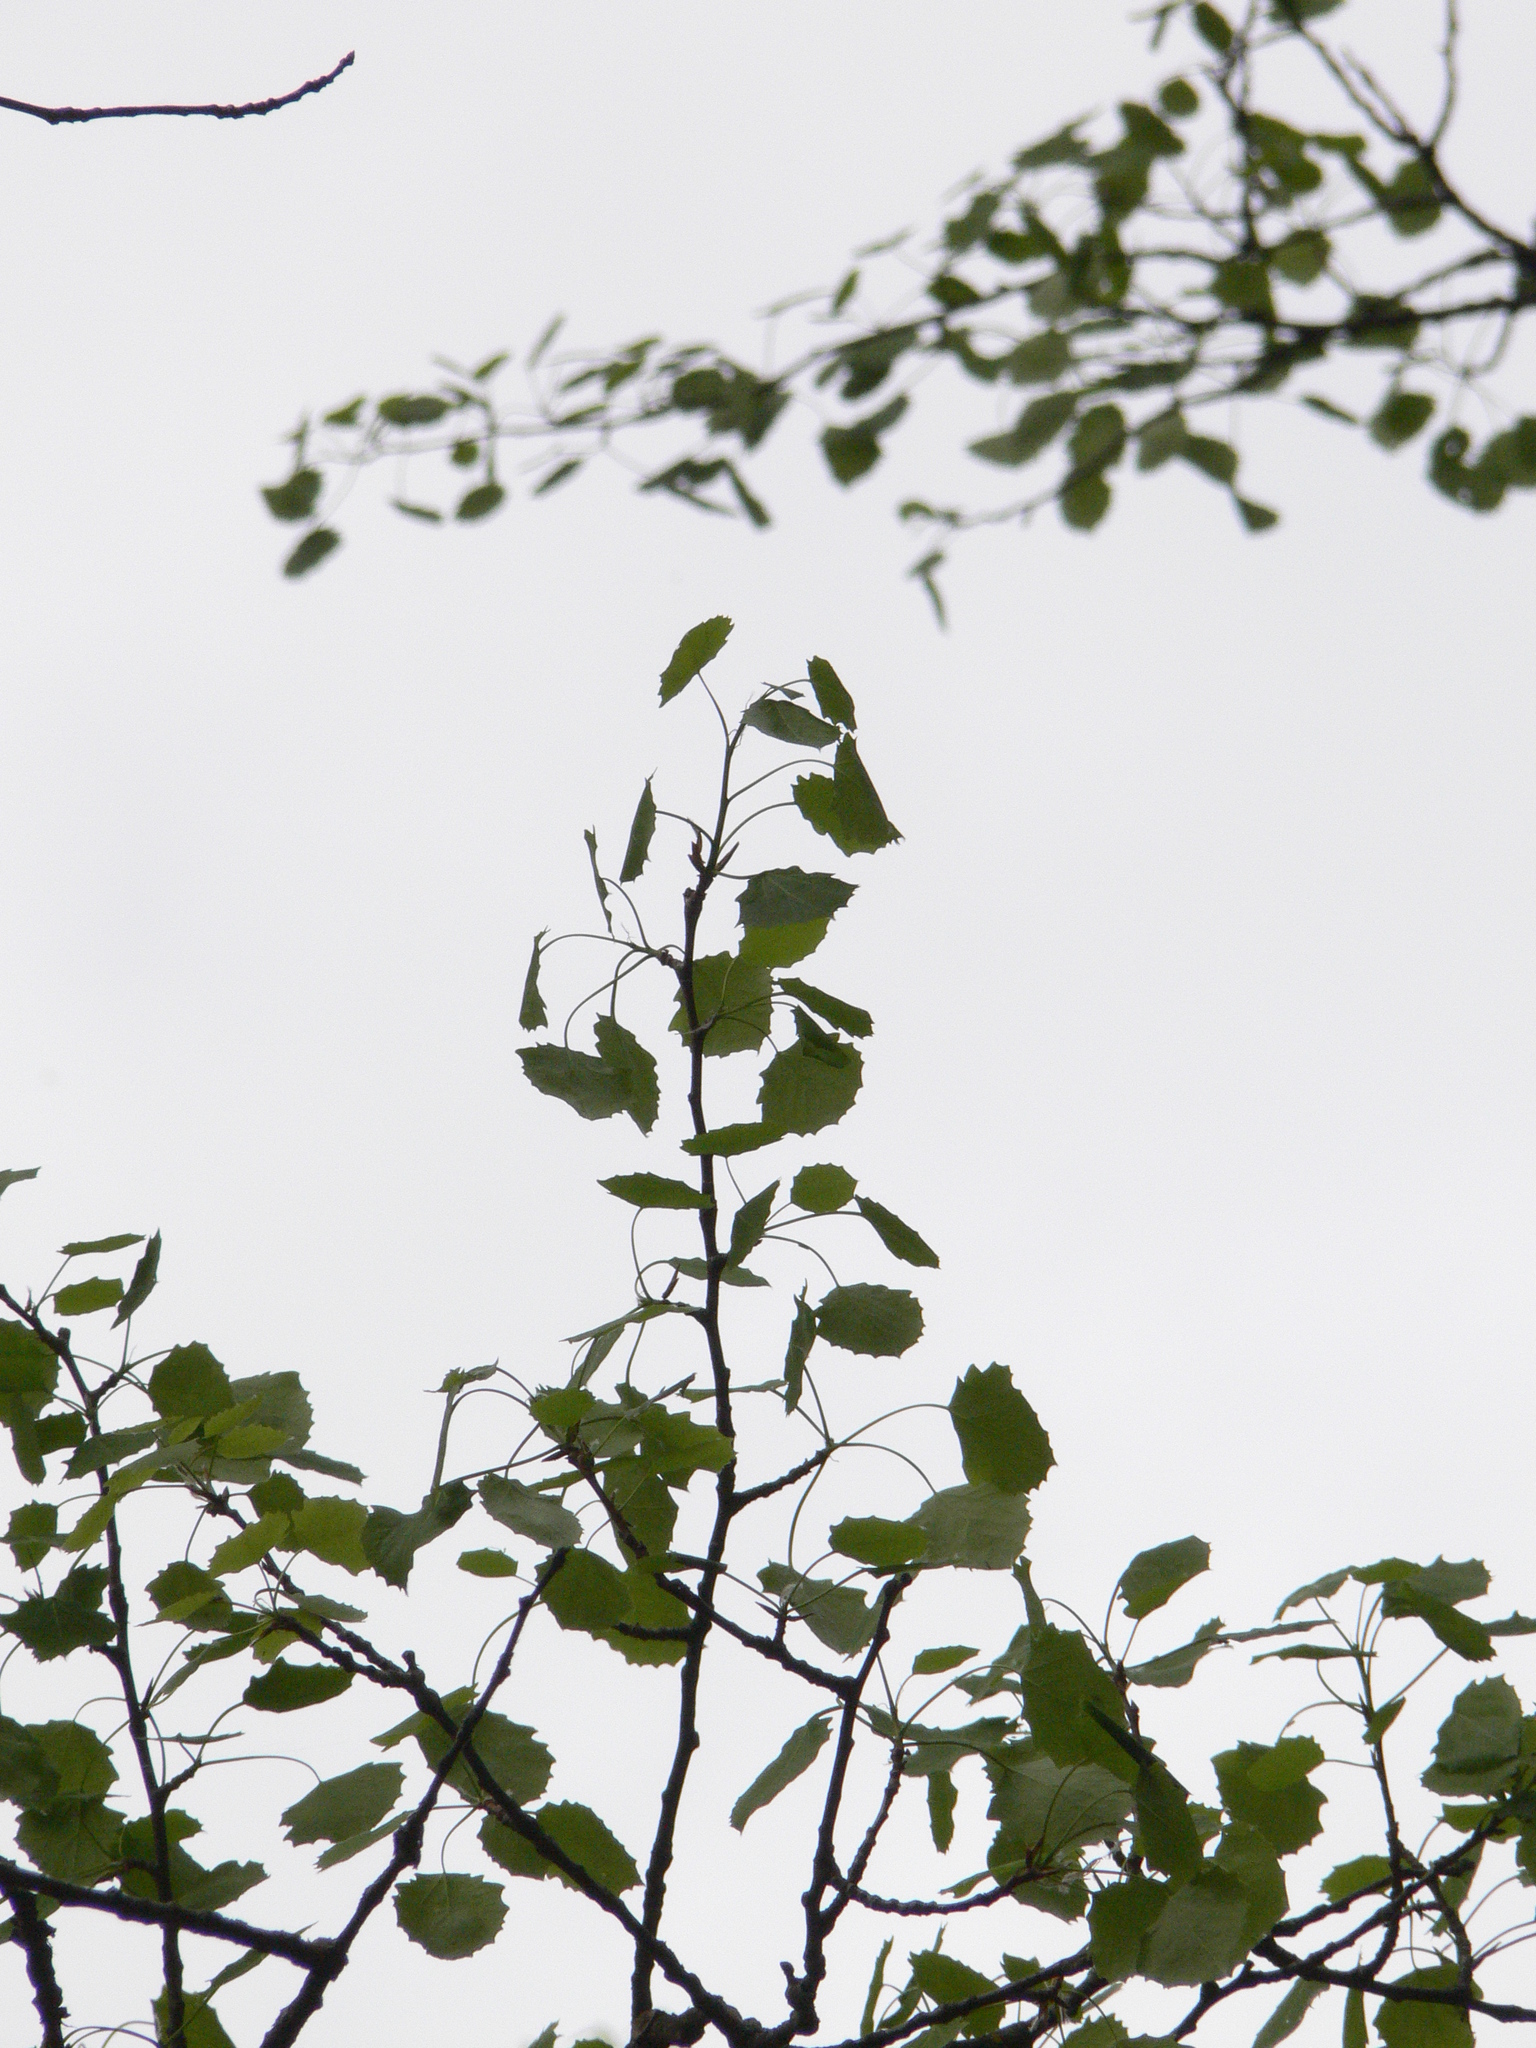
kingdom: Plantae
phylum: Tracheophyta
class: Magnoliopsida
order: Malpighiales
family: Salicaceae
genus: Populus
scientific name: Populus tremula
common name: European aspen
